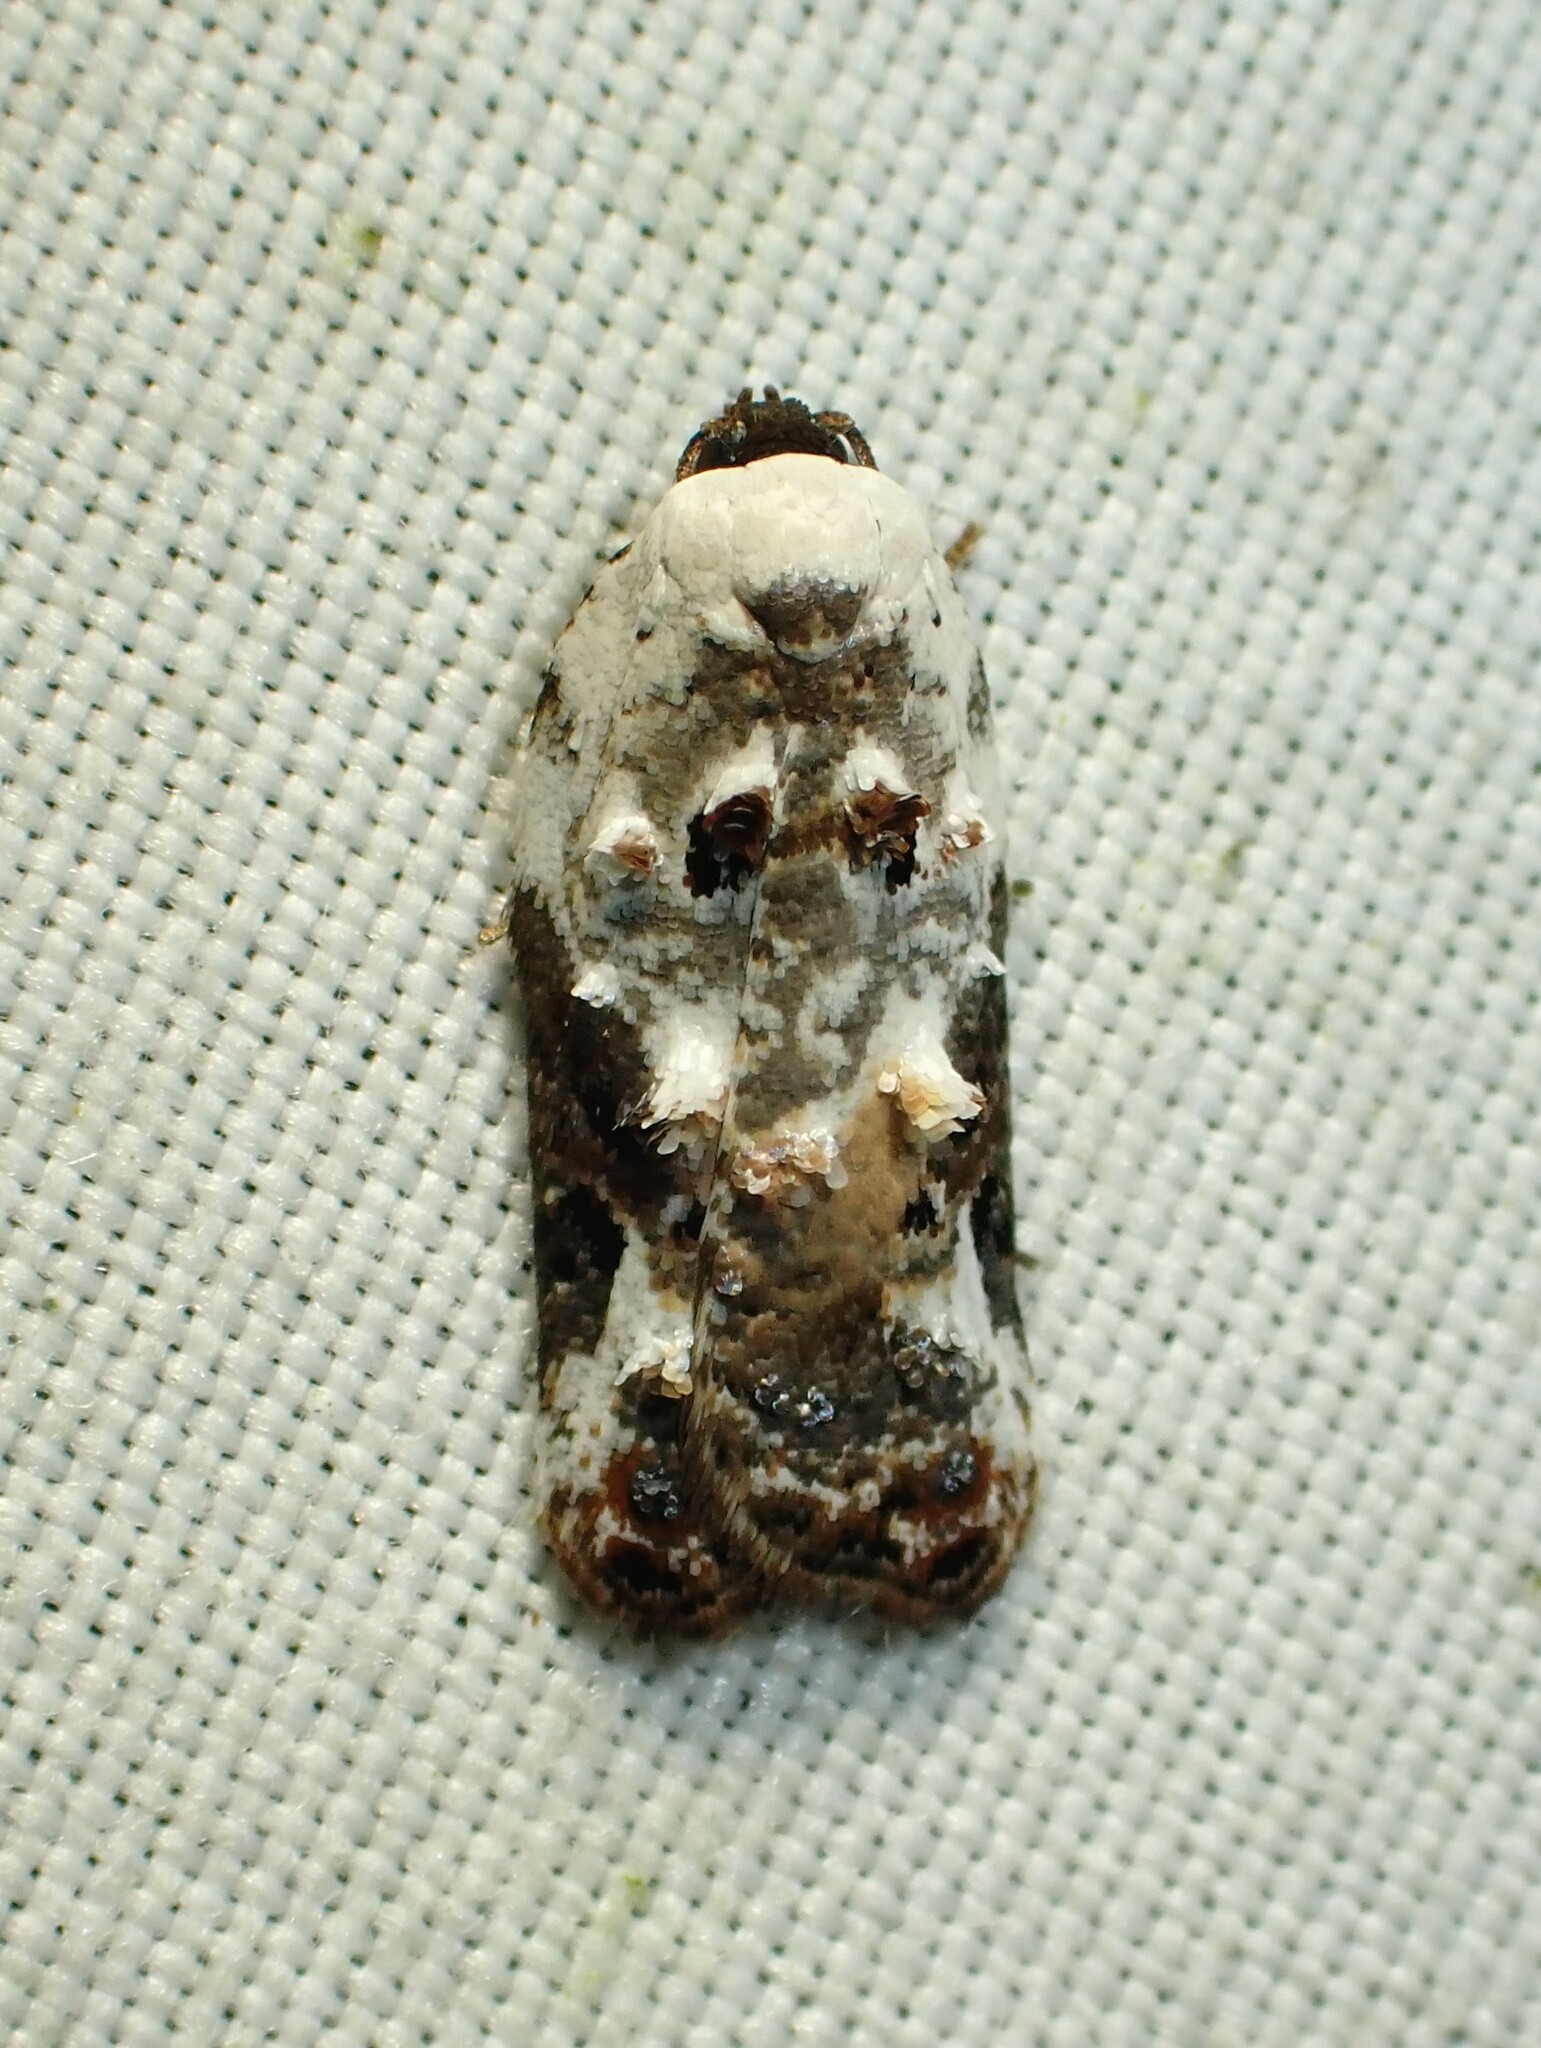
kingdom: Animalia
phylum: Arthropoda
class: Insecta
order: Lepidoptera
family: Tortricidae
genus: Acleris
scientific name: Acleris nivisellana
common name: Snowy-shouldered acleris moth
